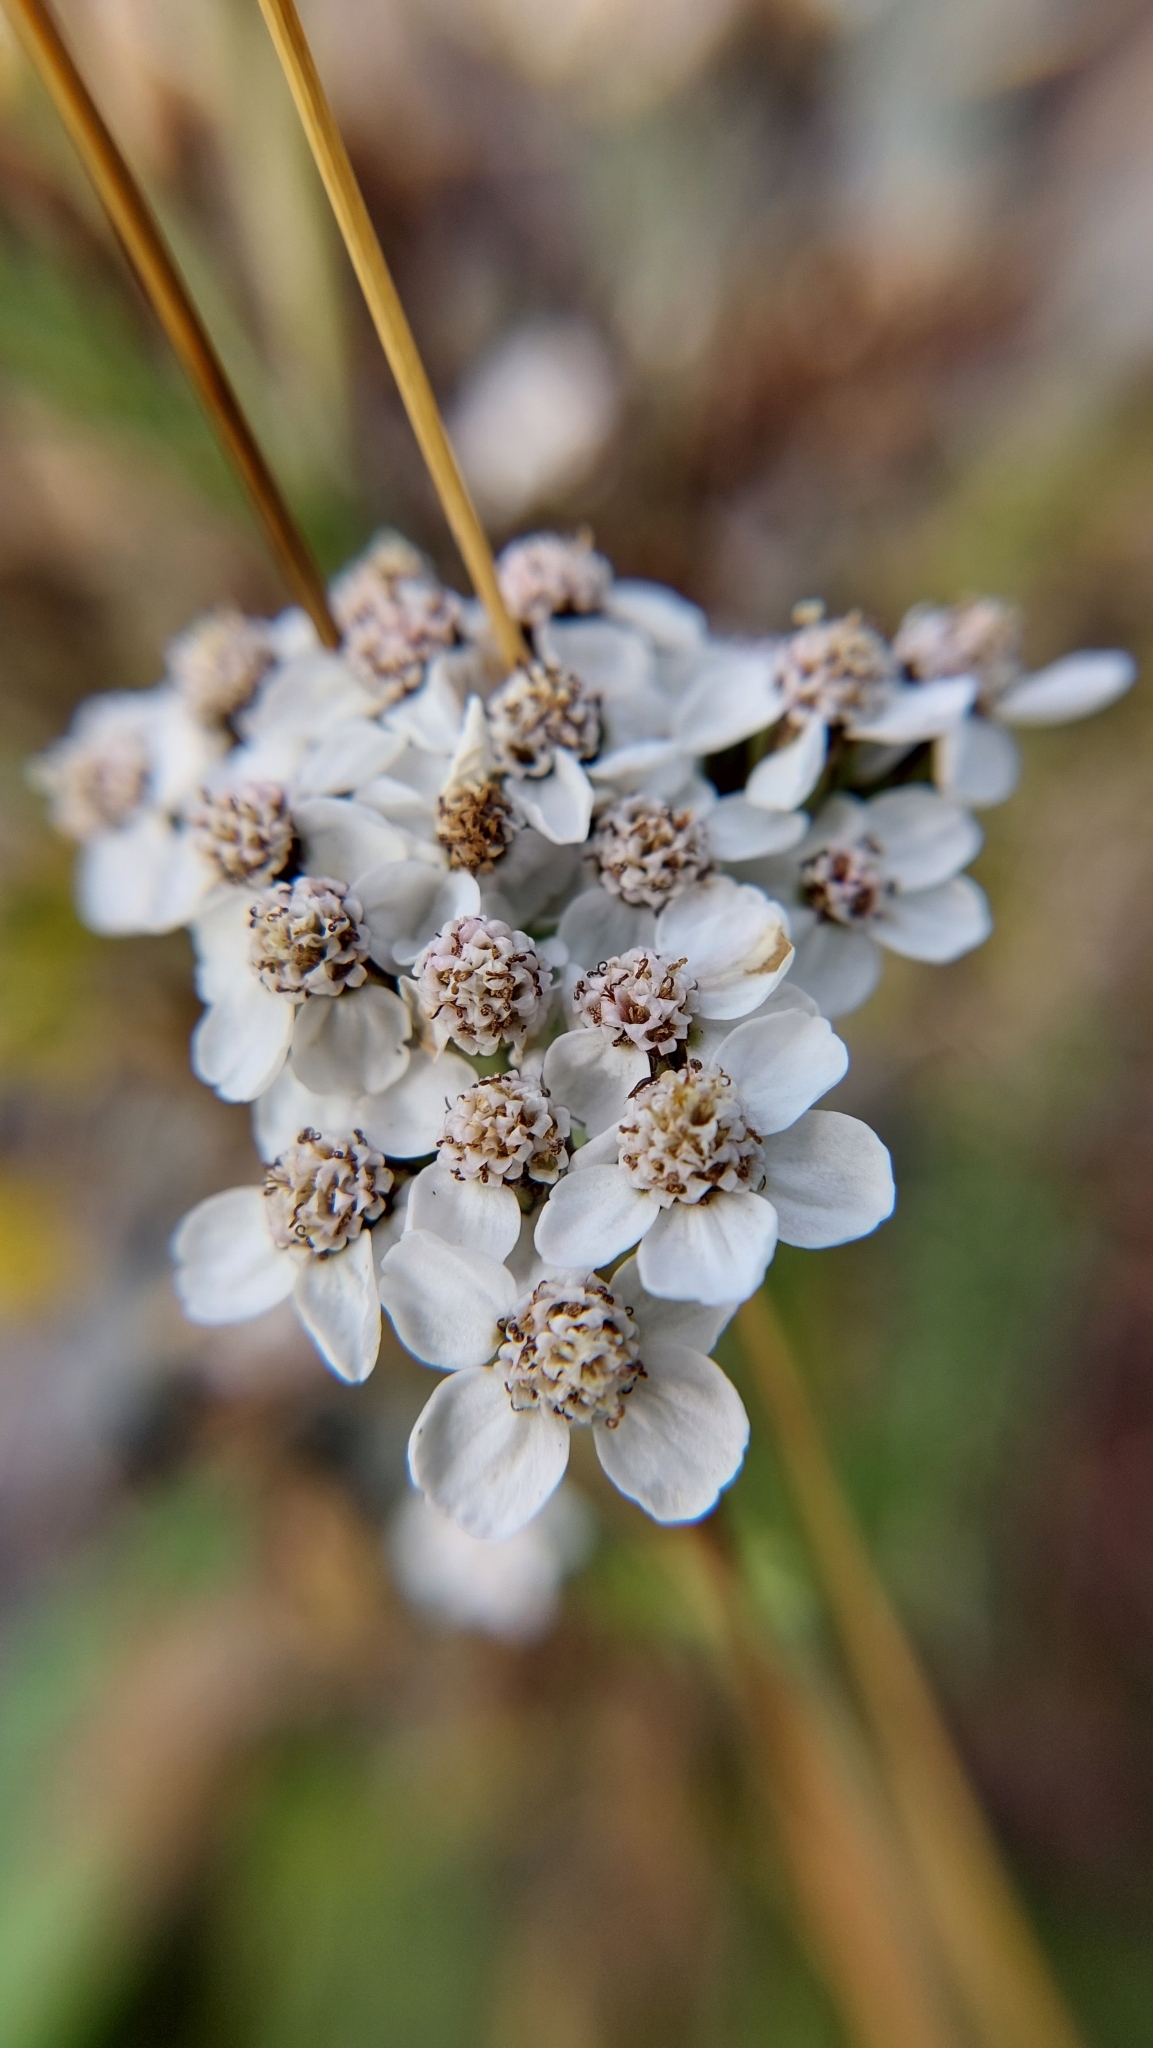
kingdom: Plantae
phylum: Tracheophyta
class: Magnoliopsida
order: Asterales
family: Asteraceae
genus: Achillea
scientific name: Achillea millefolium
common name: Yarrow
